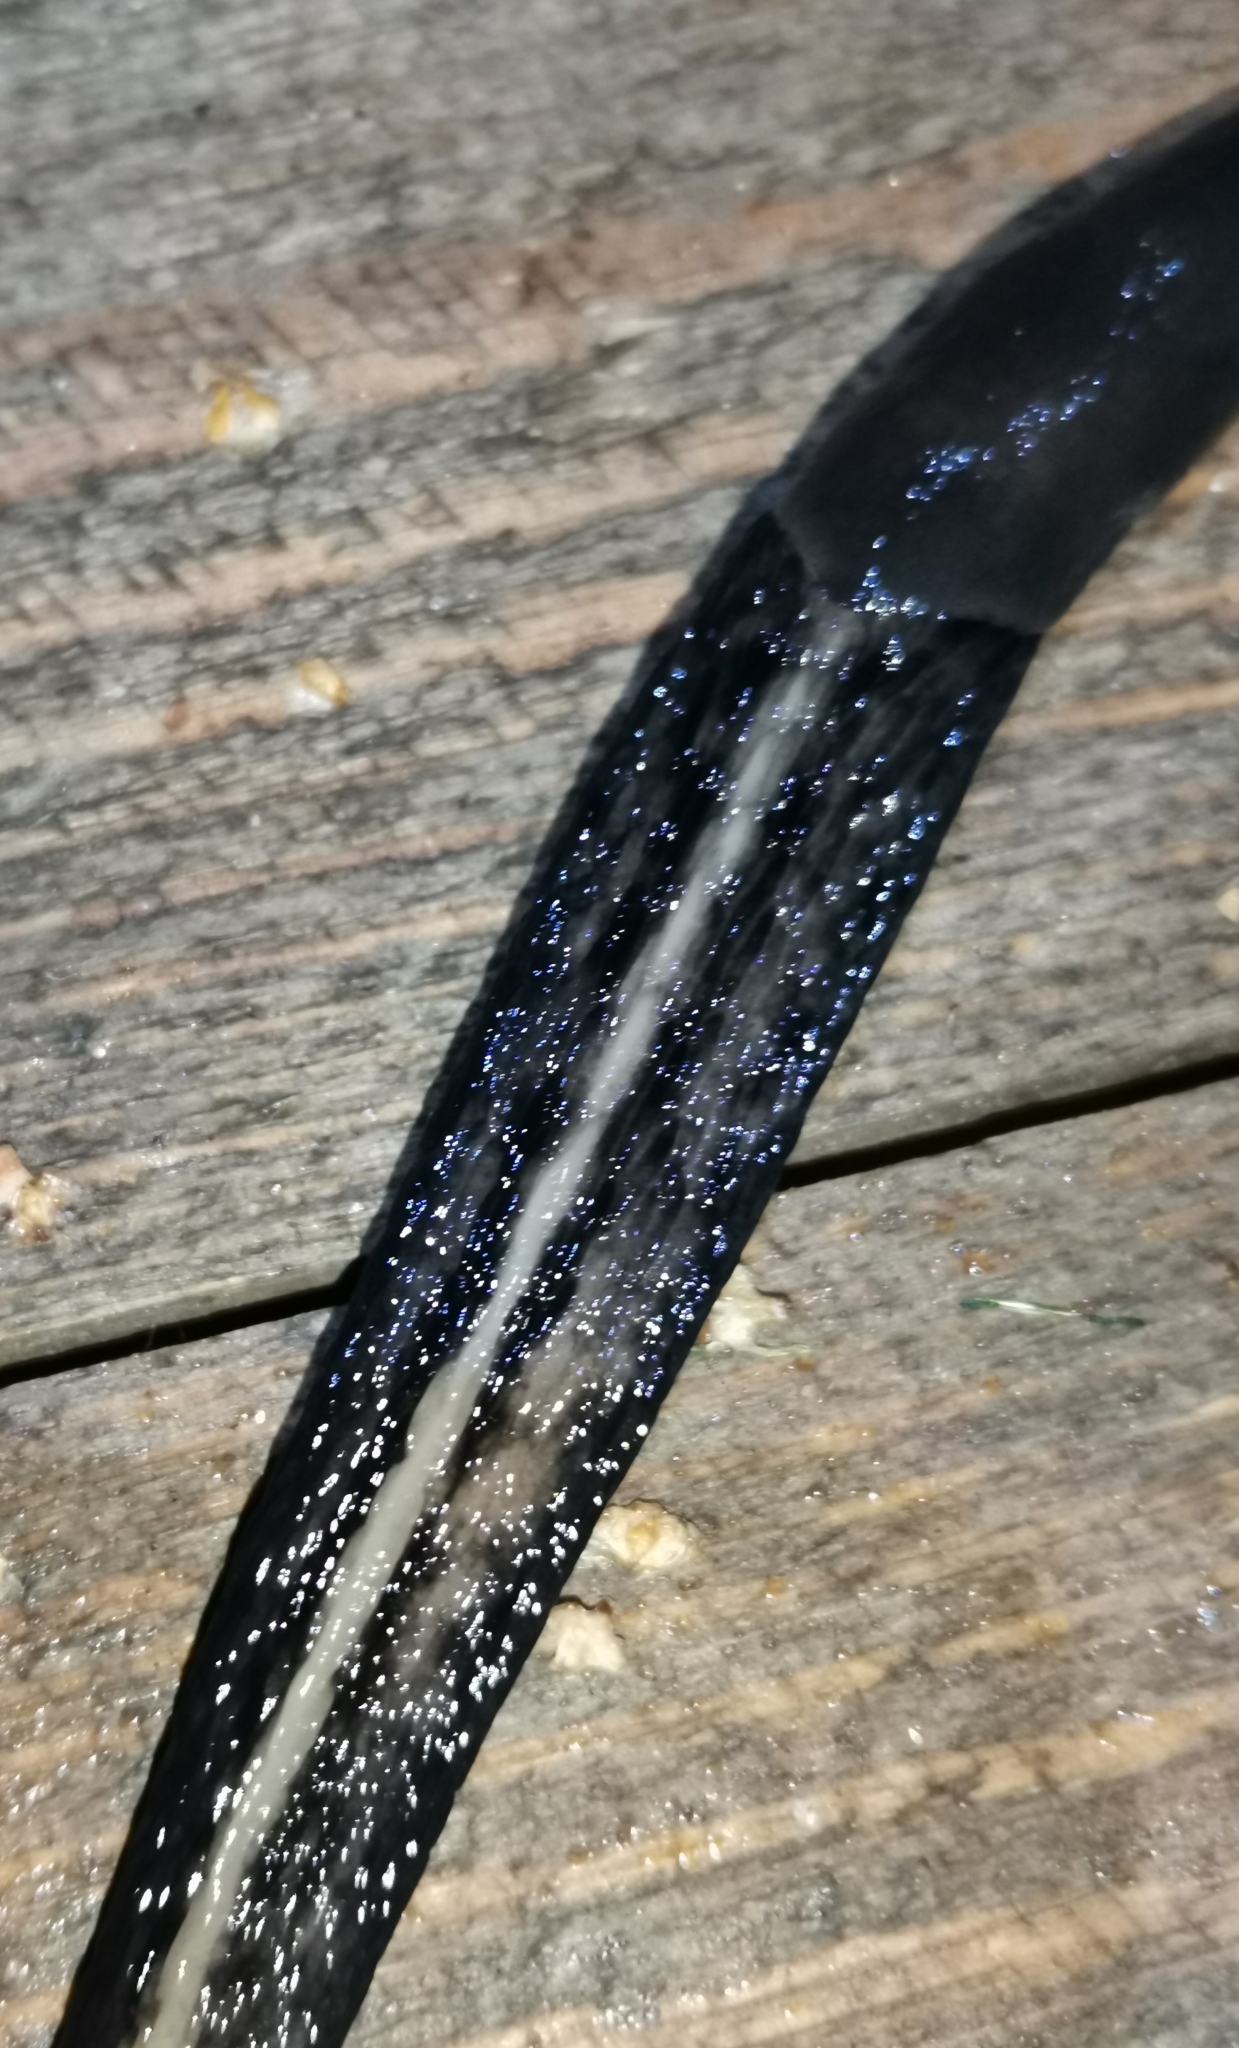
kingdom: Animalia
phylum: Mollusca
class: Gastropoda
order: Stylommatophora
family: Limacidae
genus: Limax
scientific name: Limax cinereoniger
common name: Ash-black slug
